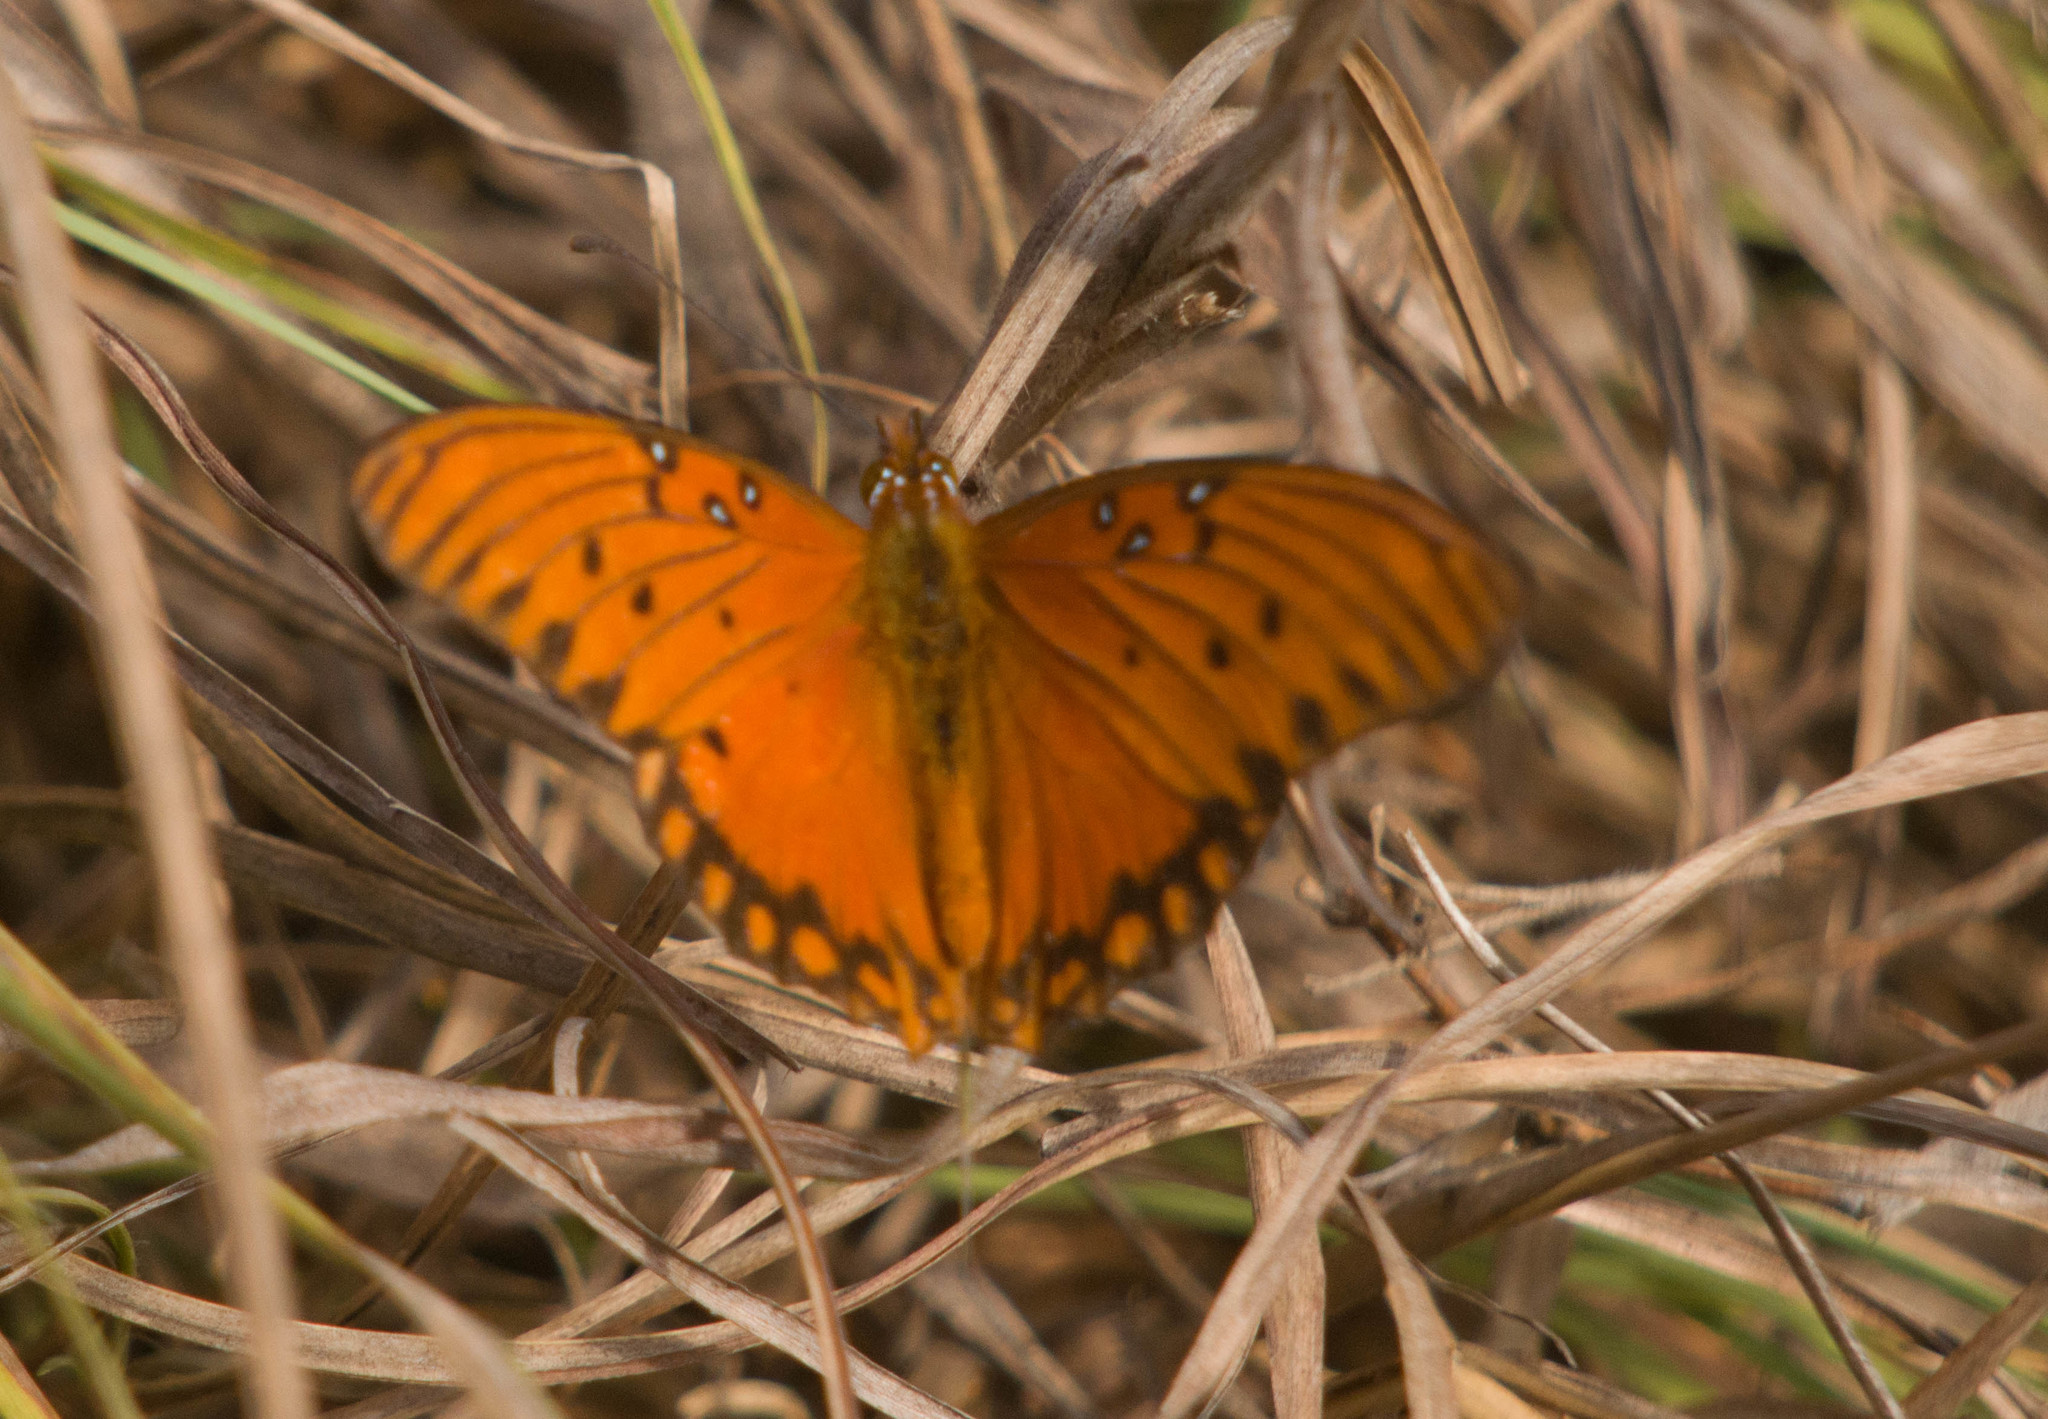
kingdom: Animalia
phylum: Arthropoda
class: Insecta
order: Lepidoptera
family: Nymphalidae
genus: Dione
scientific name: Dione vanillae
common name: Gulf fritillary
